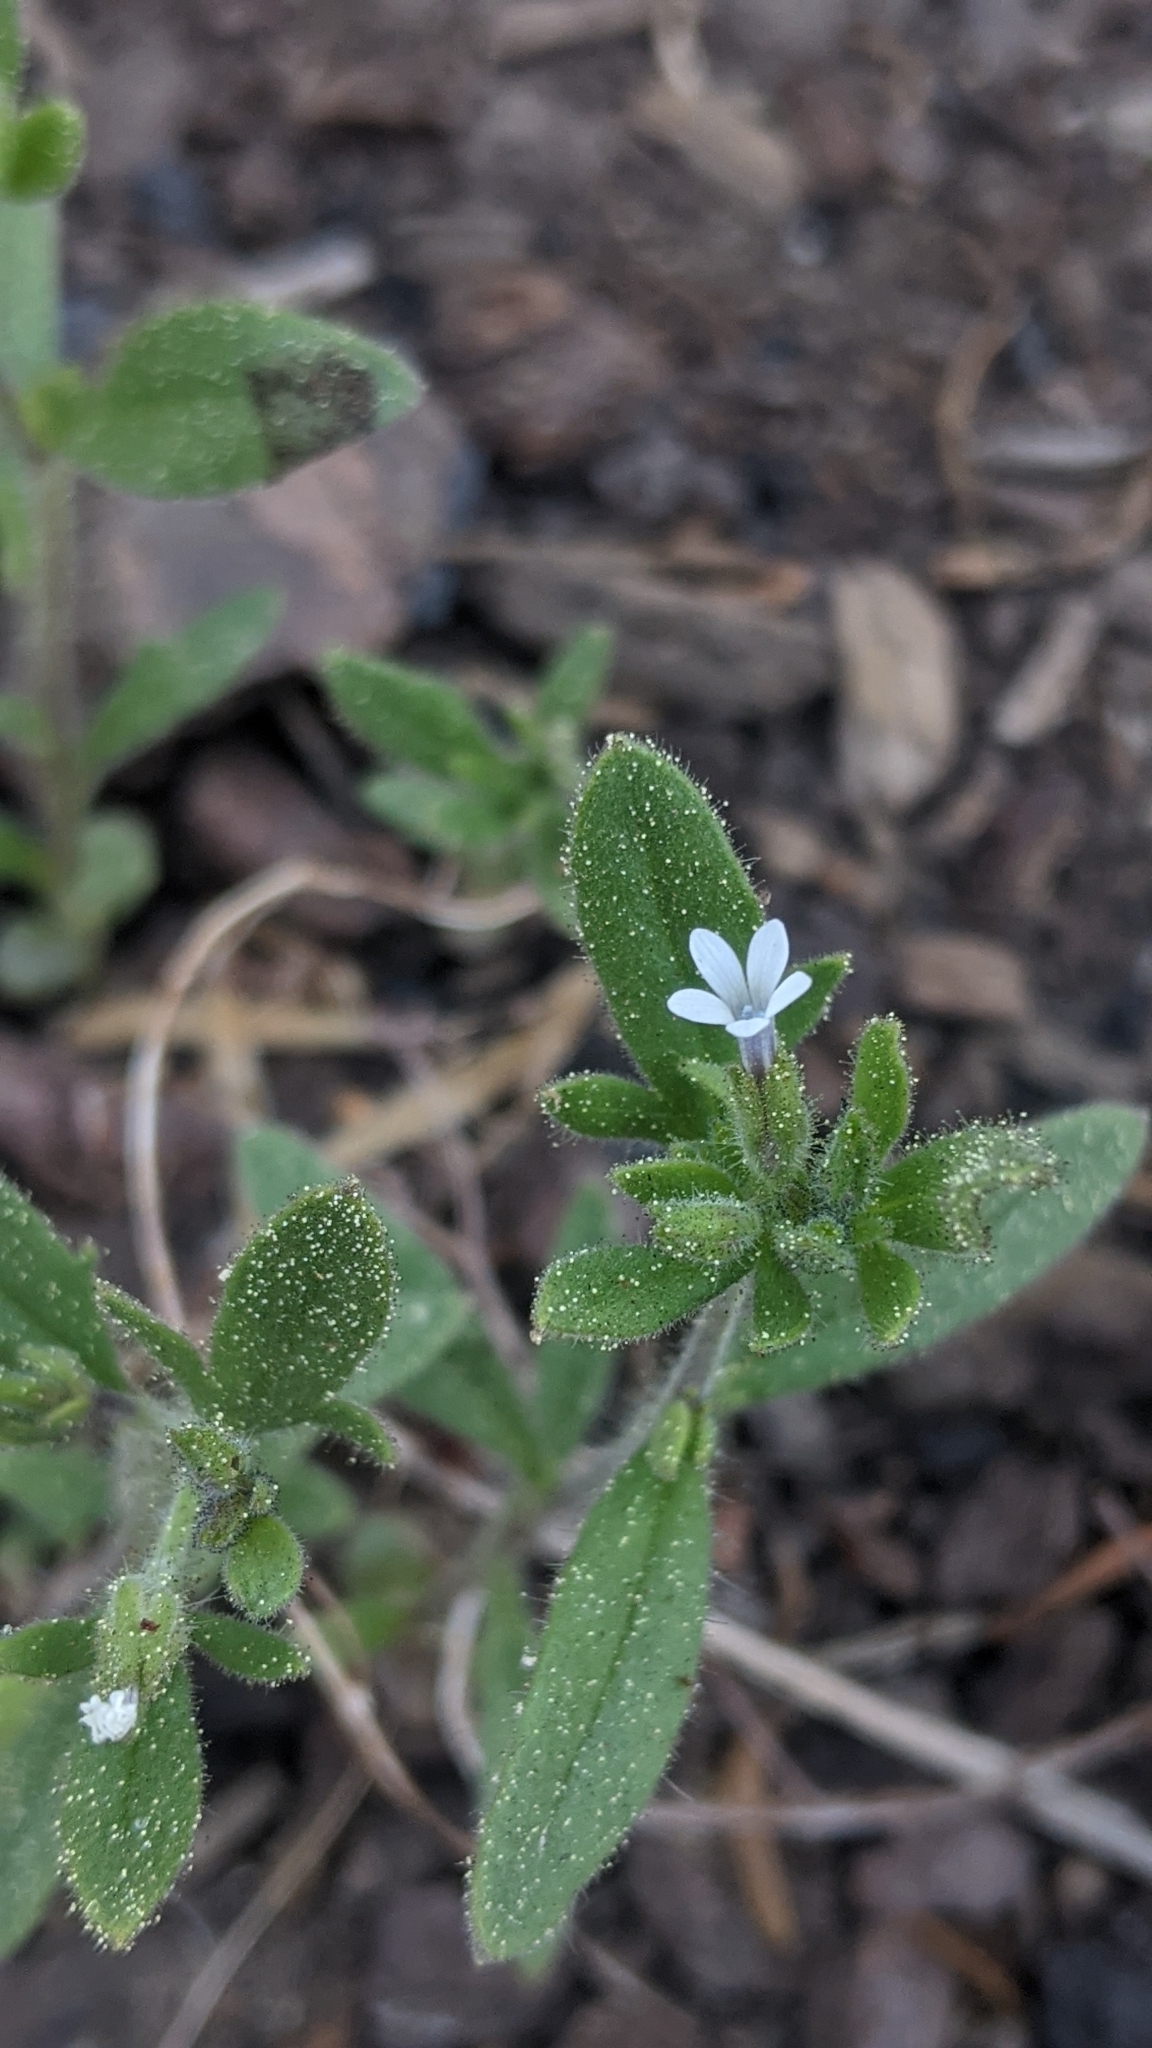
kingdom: Plantae
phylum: Tracheophyta
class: Magnoliopsida
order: Ericales
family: Polemoniaceae
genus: Allophyllum
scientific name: Allophyllum integrifolium
